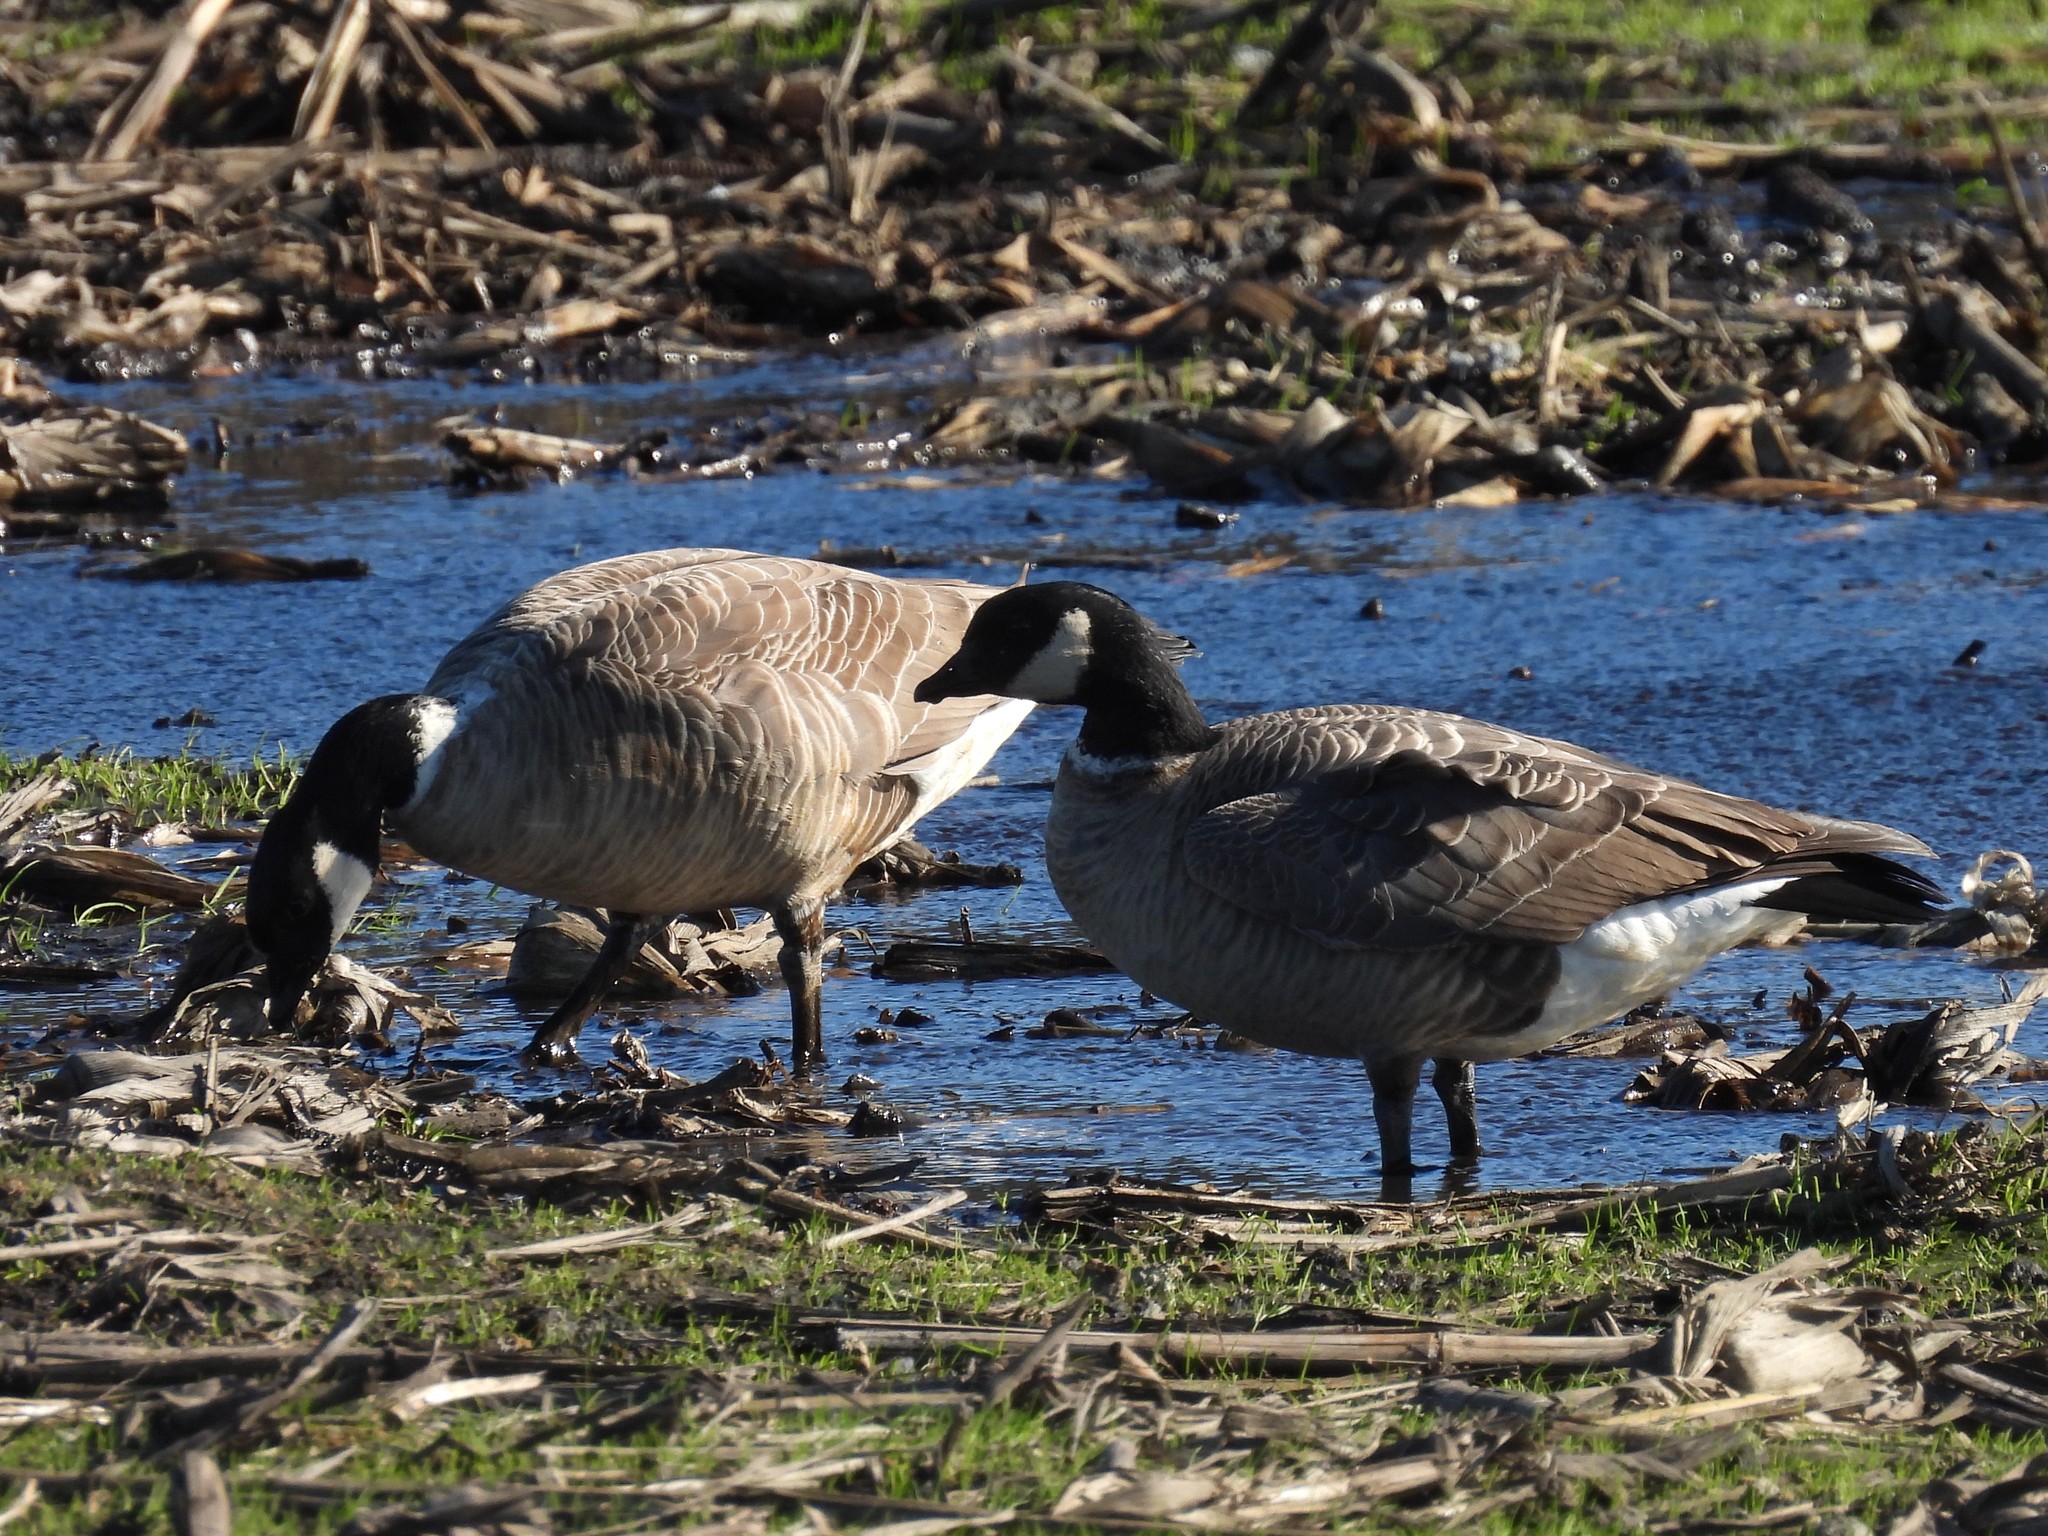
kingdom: Animalia
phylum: Chordata
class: Aves
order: Anseriformes
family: Anatidae
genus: Branta
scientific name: Branta hutchinsii
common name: Cackling goose
